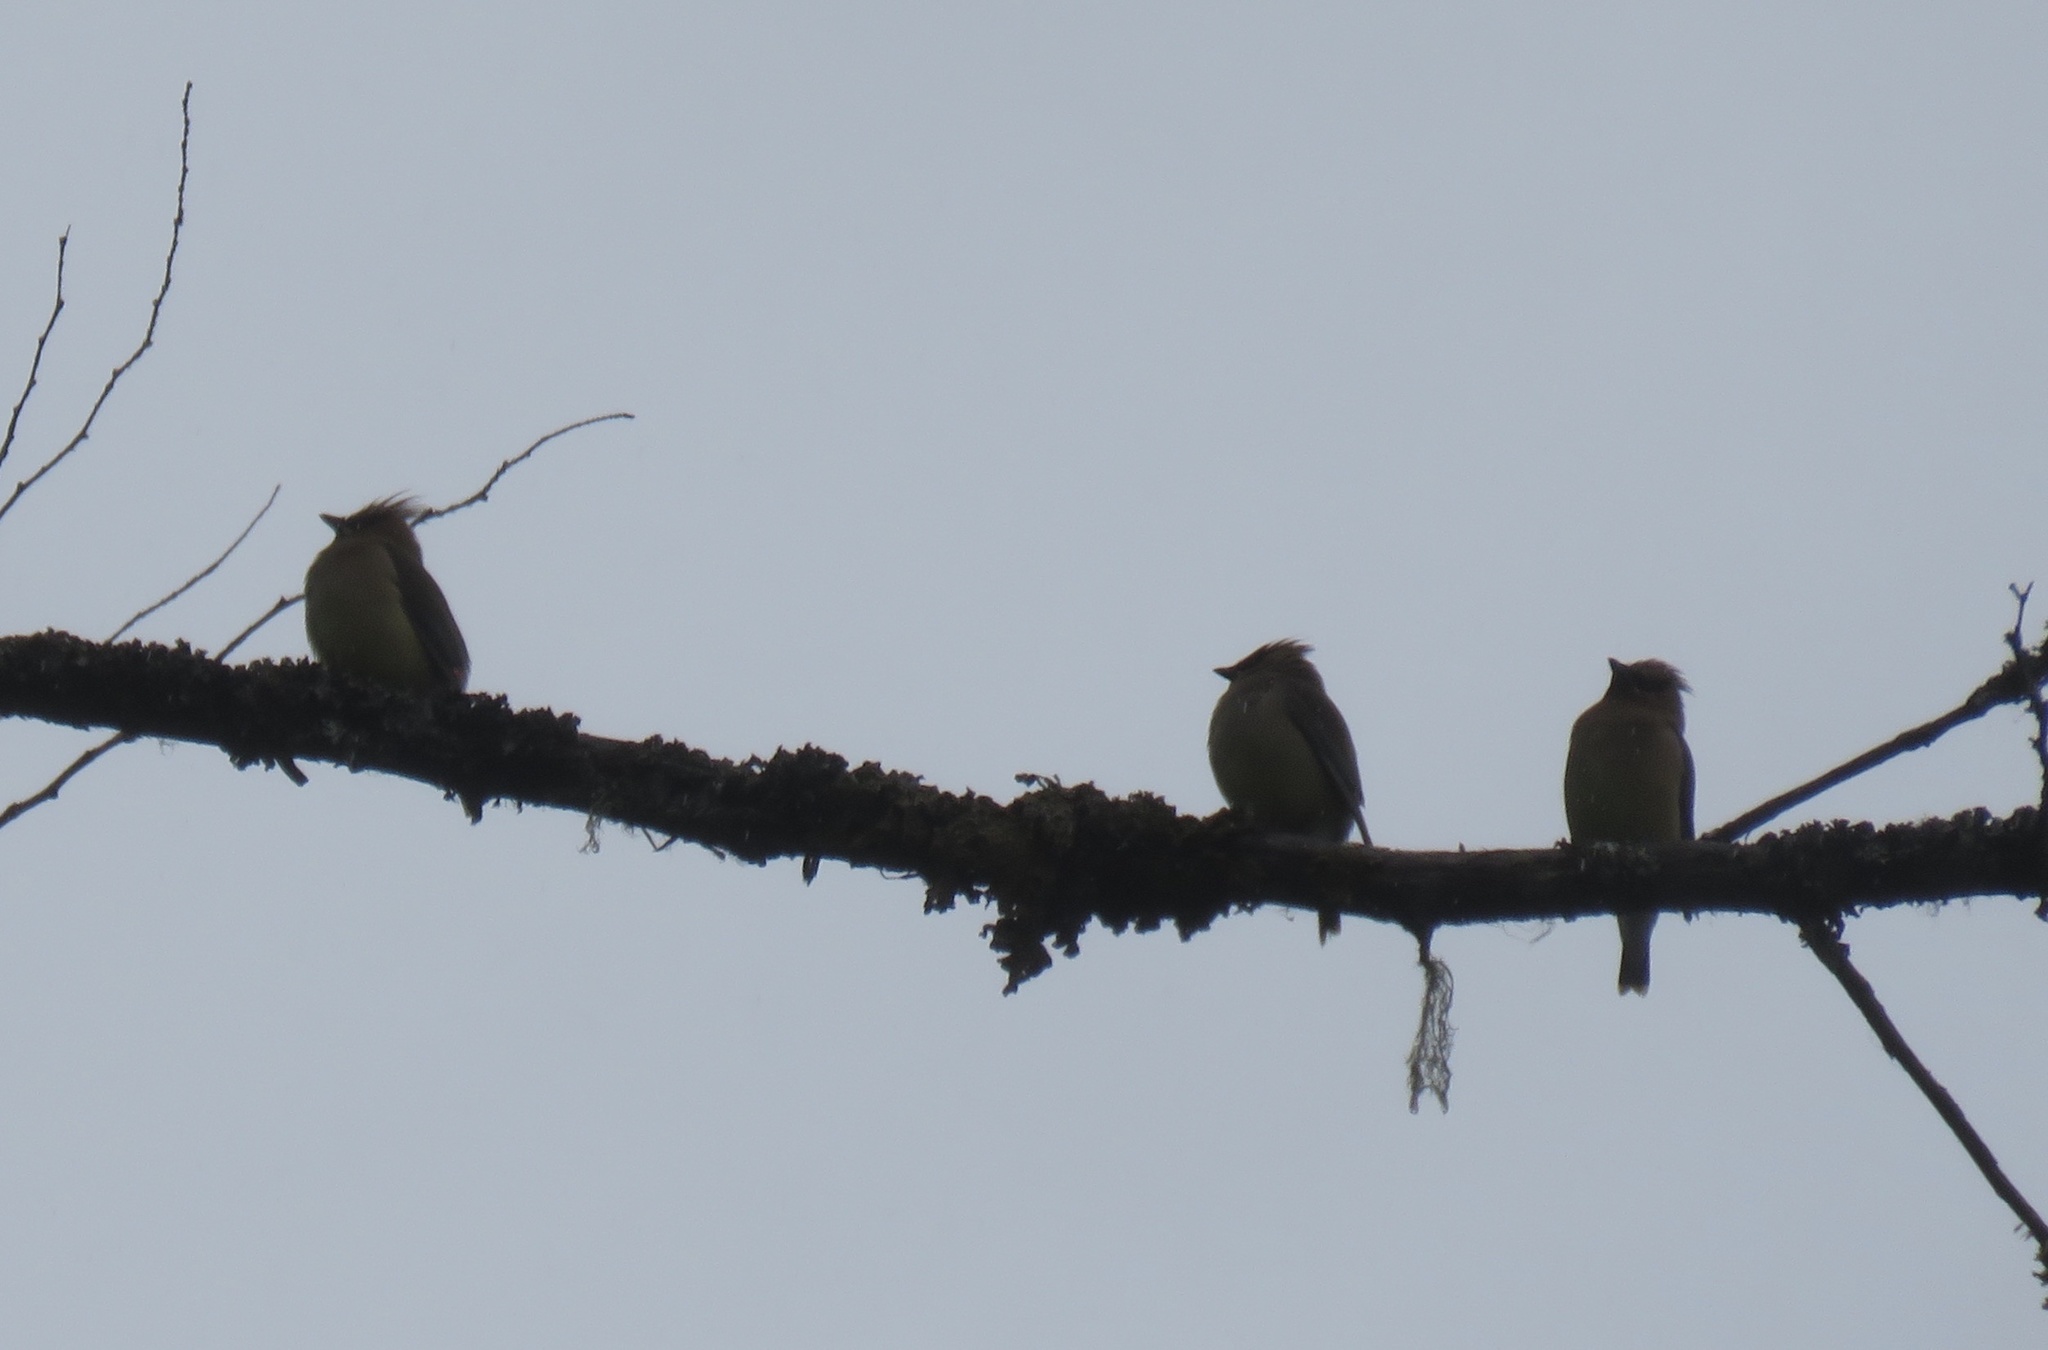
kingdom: Animalia
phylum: Chordata
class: Aves
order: Passeriformes
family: Bombycillidae
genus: Bombycilla
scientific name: Bombycilla cedrorum
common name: Cedar waxwing
